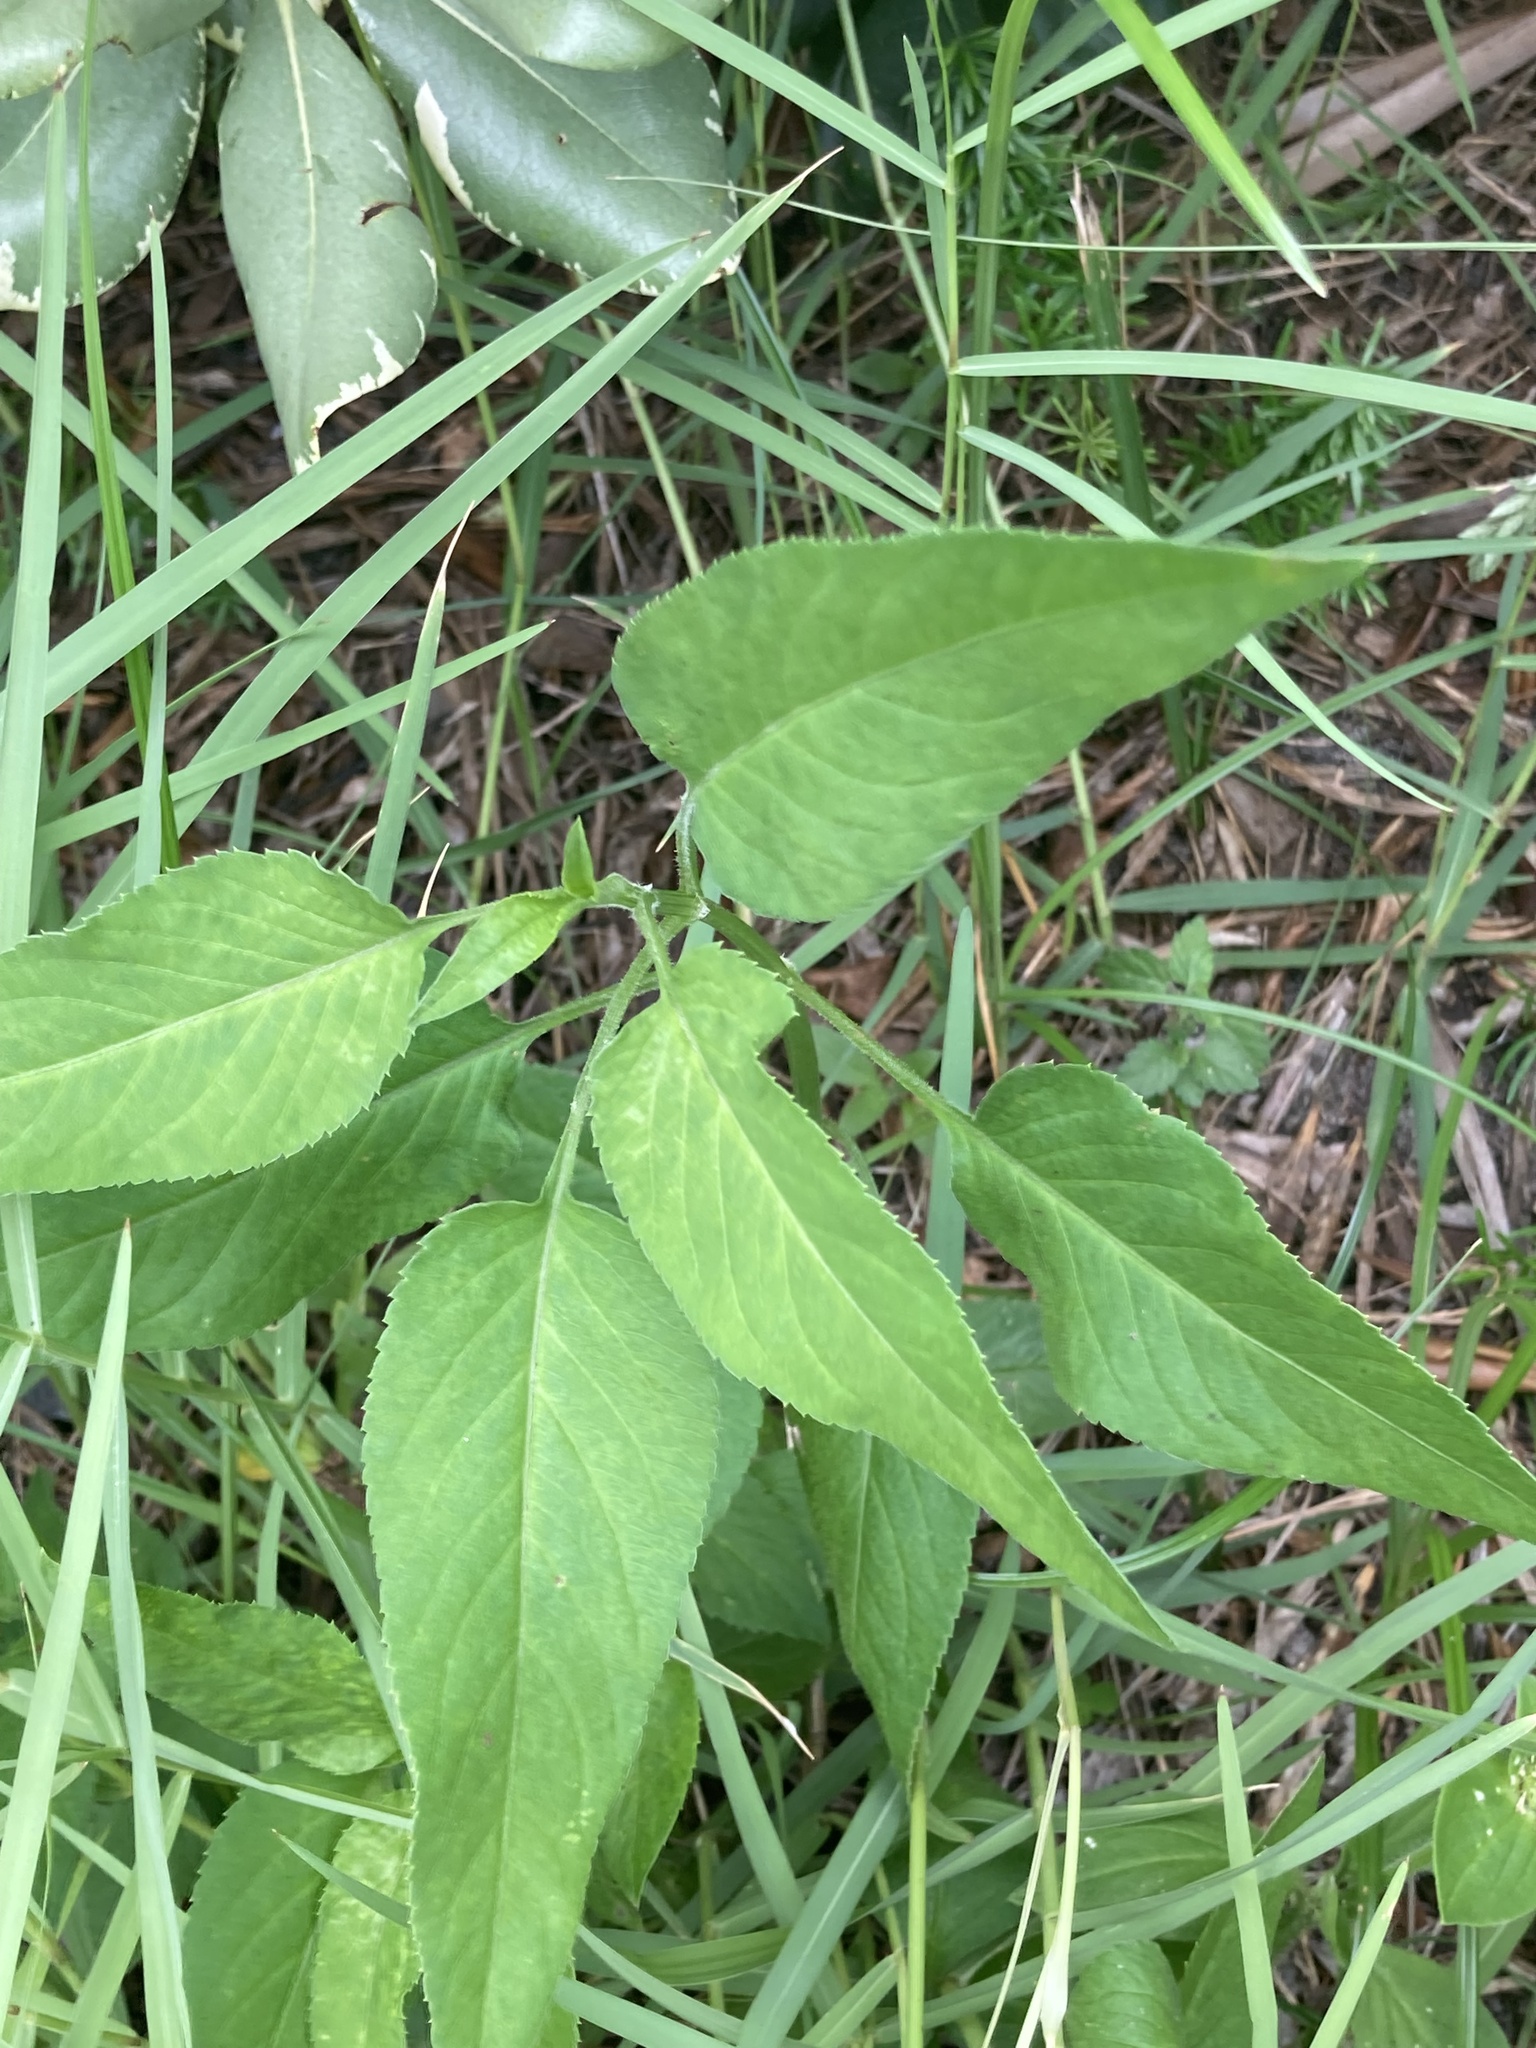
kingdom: Plantae
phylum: Tracheophyta
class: Magnoliopsida
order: Asterales
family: Asteraceae
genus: Bidens
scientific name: Bidens alba
